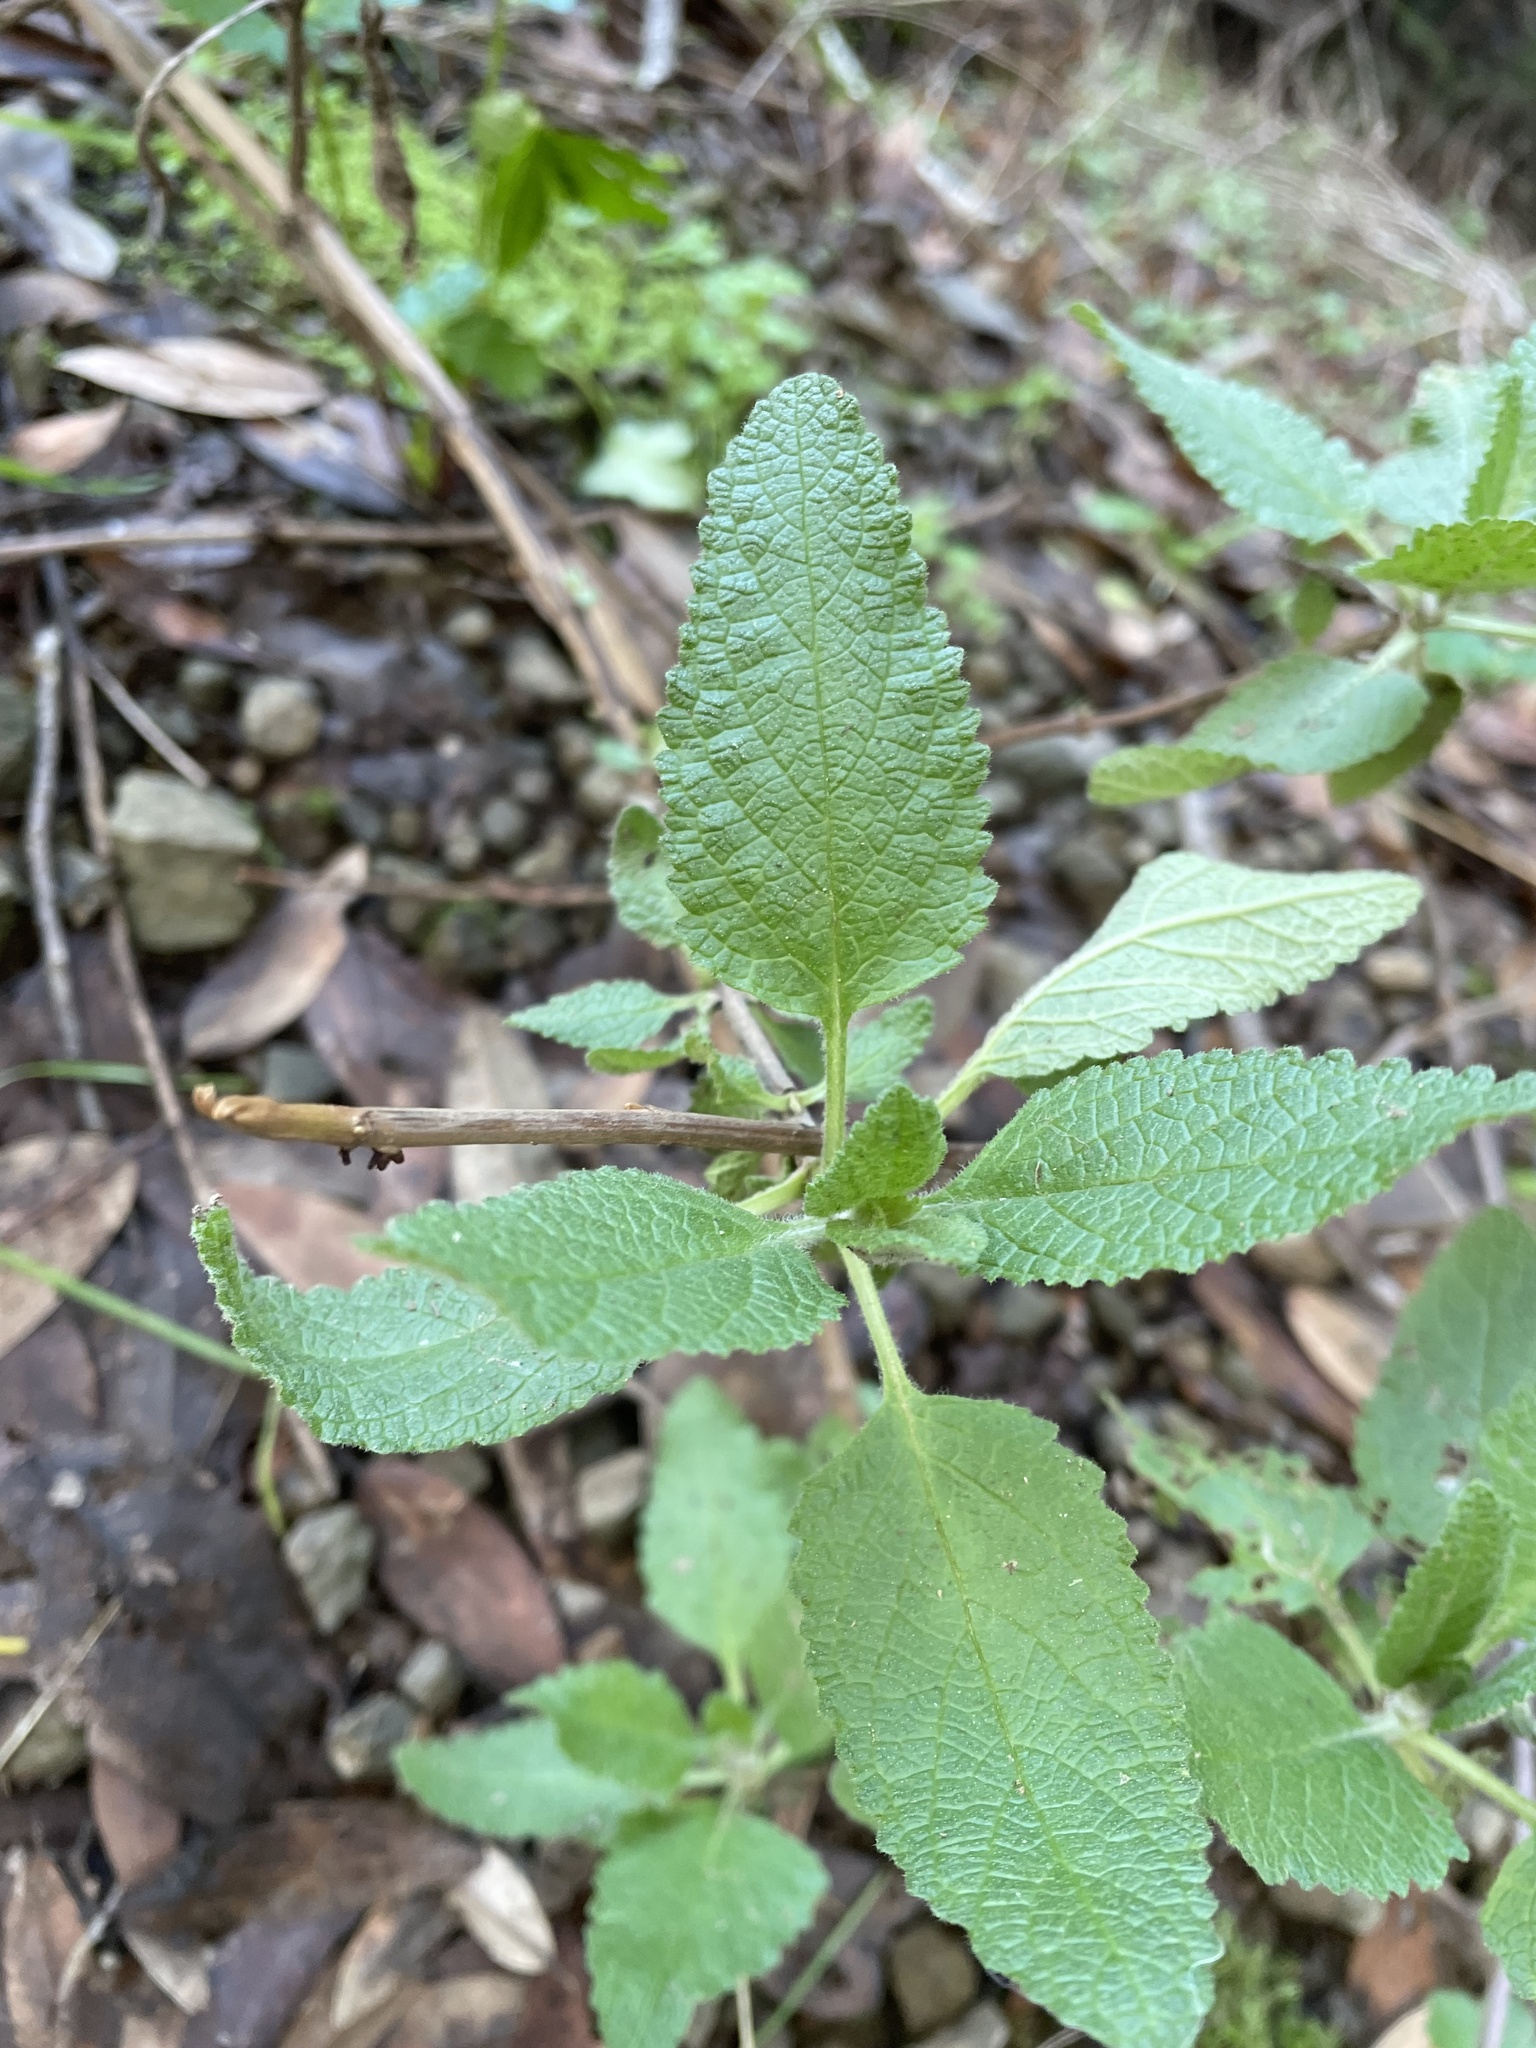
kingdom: Plantae
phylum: Tracheophyta
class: Magnoliopsida
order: Lamiales
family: Lamiaceae
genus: Lepechinia
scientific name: Lepechinia calycina
